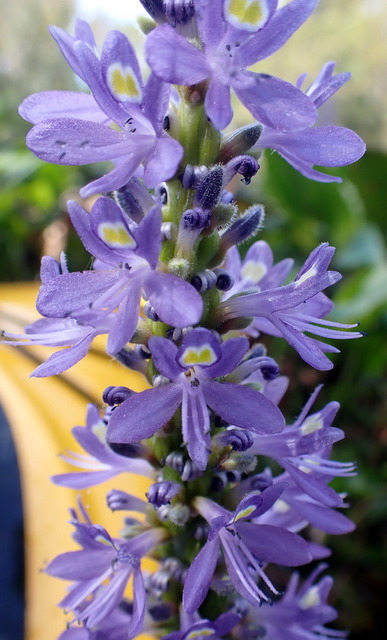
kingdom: Plantae
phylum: Tracheophyta
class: Liliopsida
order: Commelinales
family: Pontederiaceae
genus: Pontederia
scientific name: Pontederia cordata
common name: Pickerelweed
